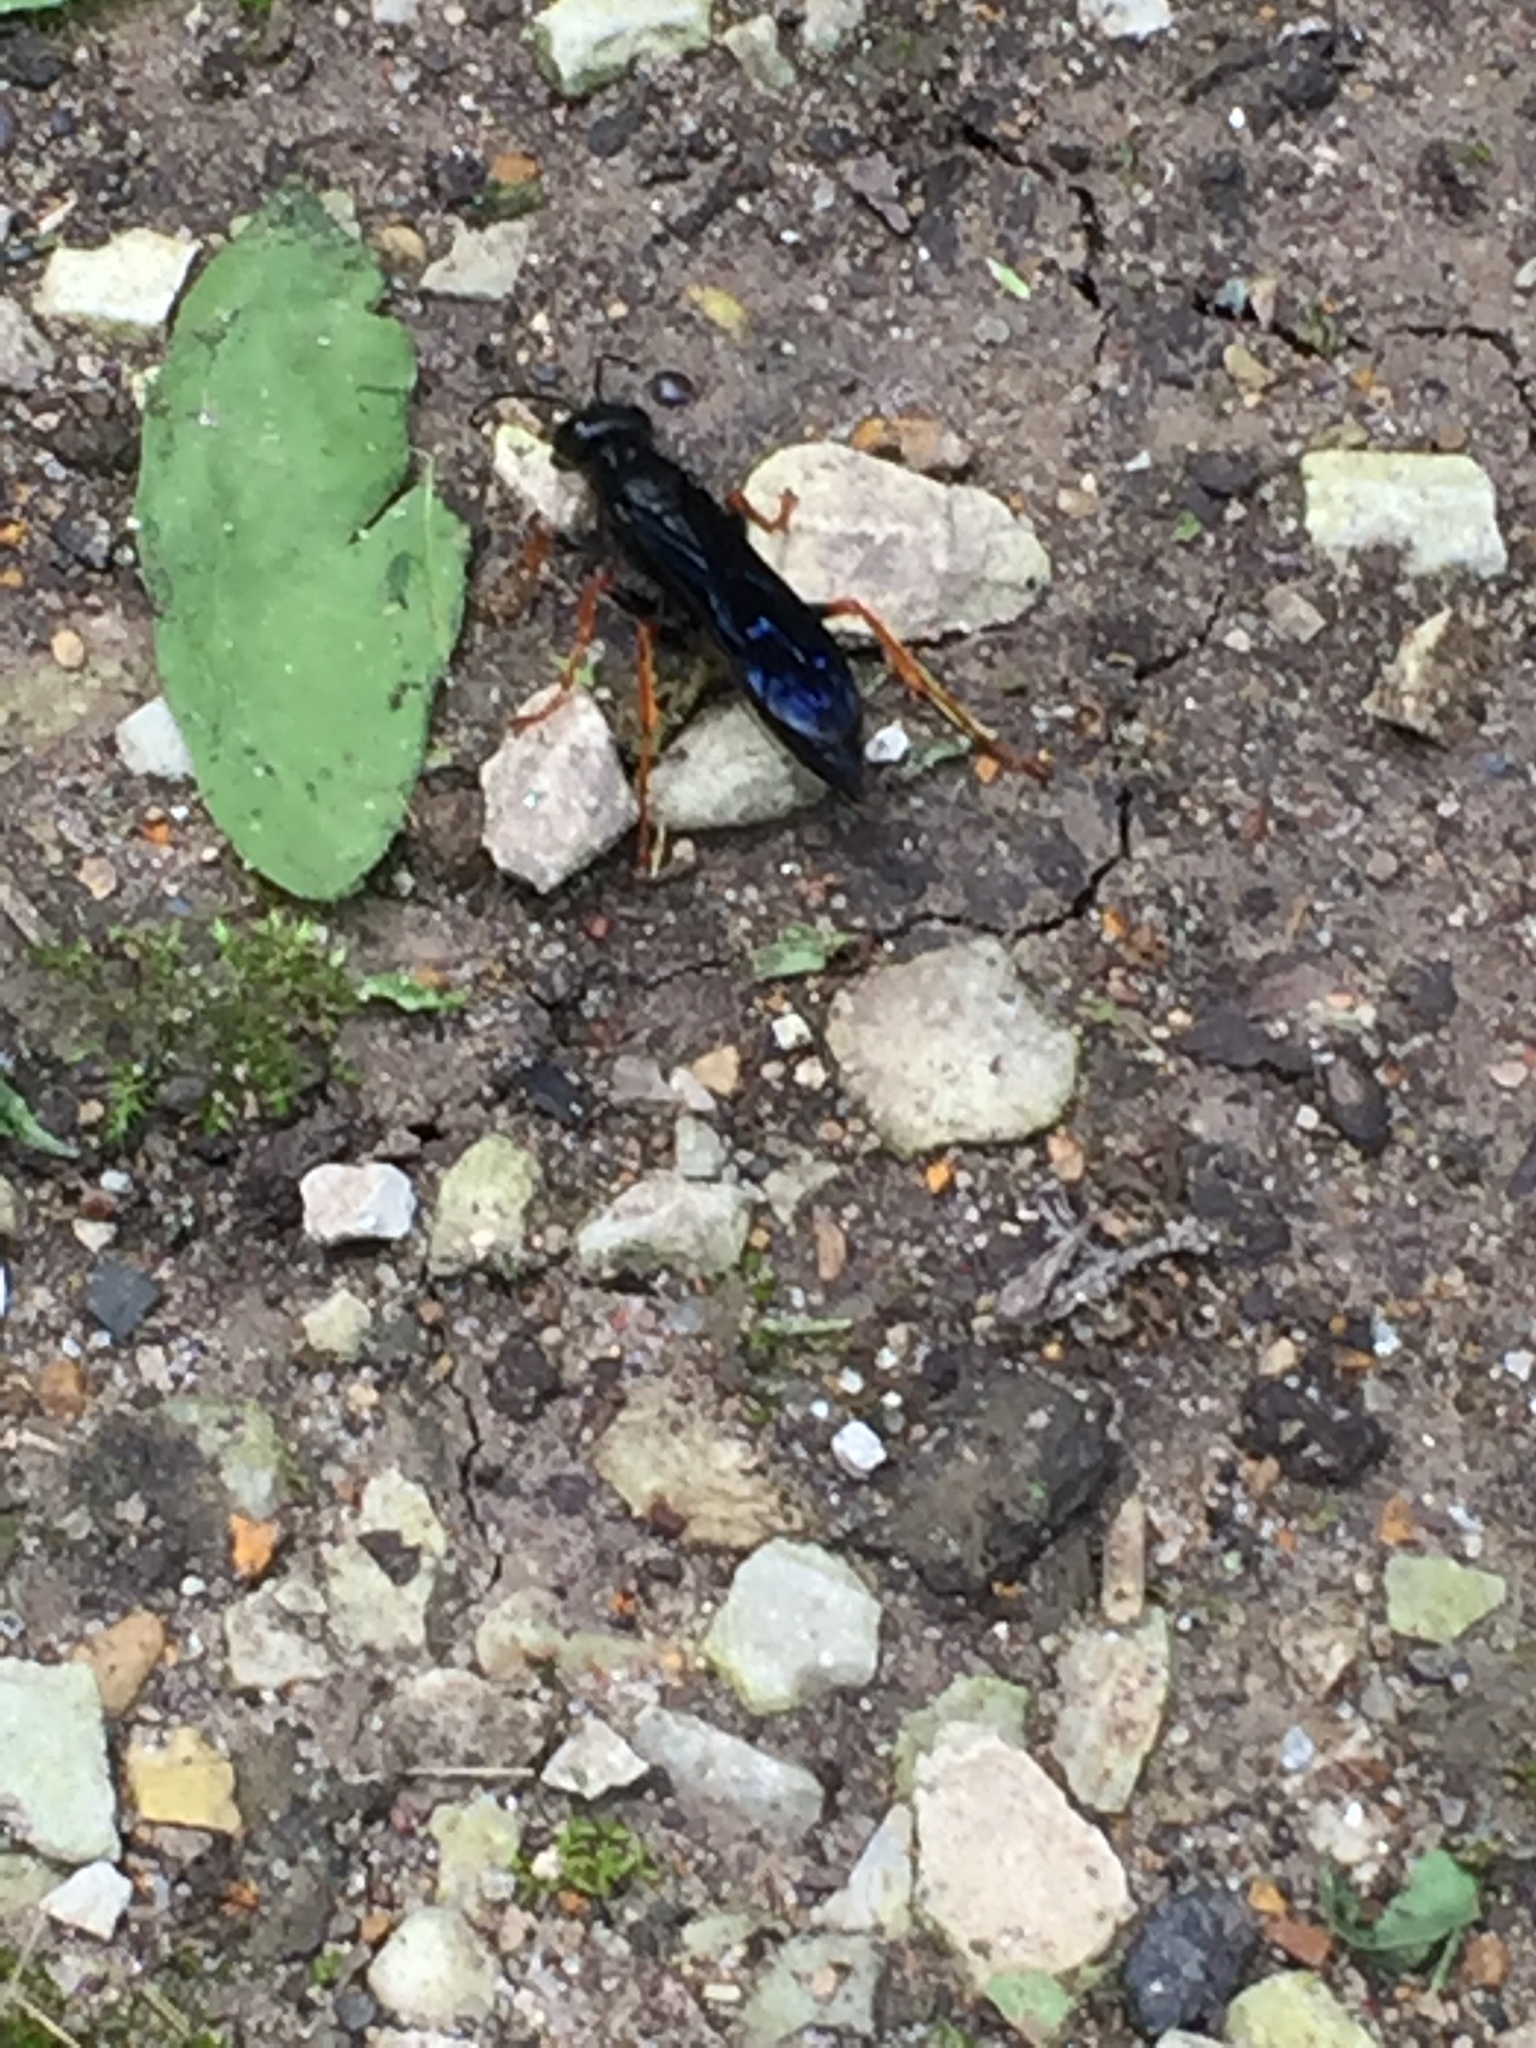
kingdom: Animalia
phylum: Arthropoda
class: Insecta
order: Hymenoptera
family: Sphecidae
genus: Podium
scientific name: Podium luctuosum
